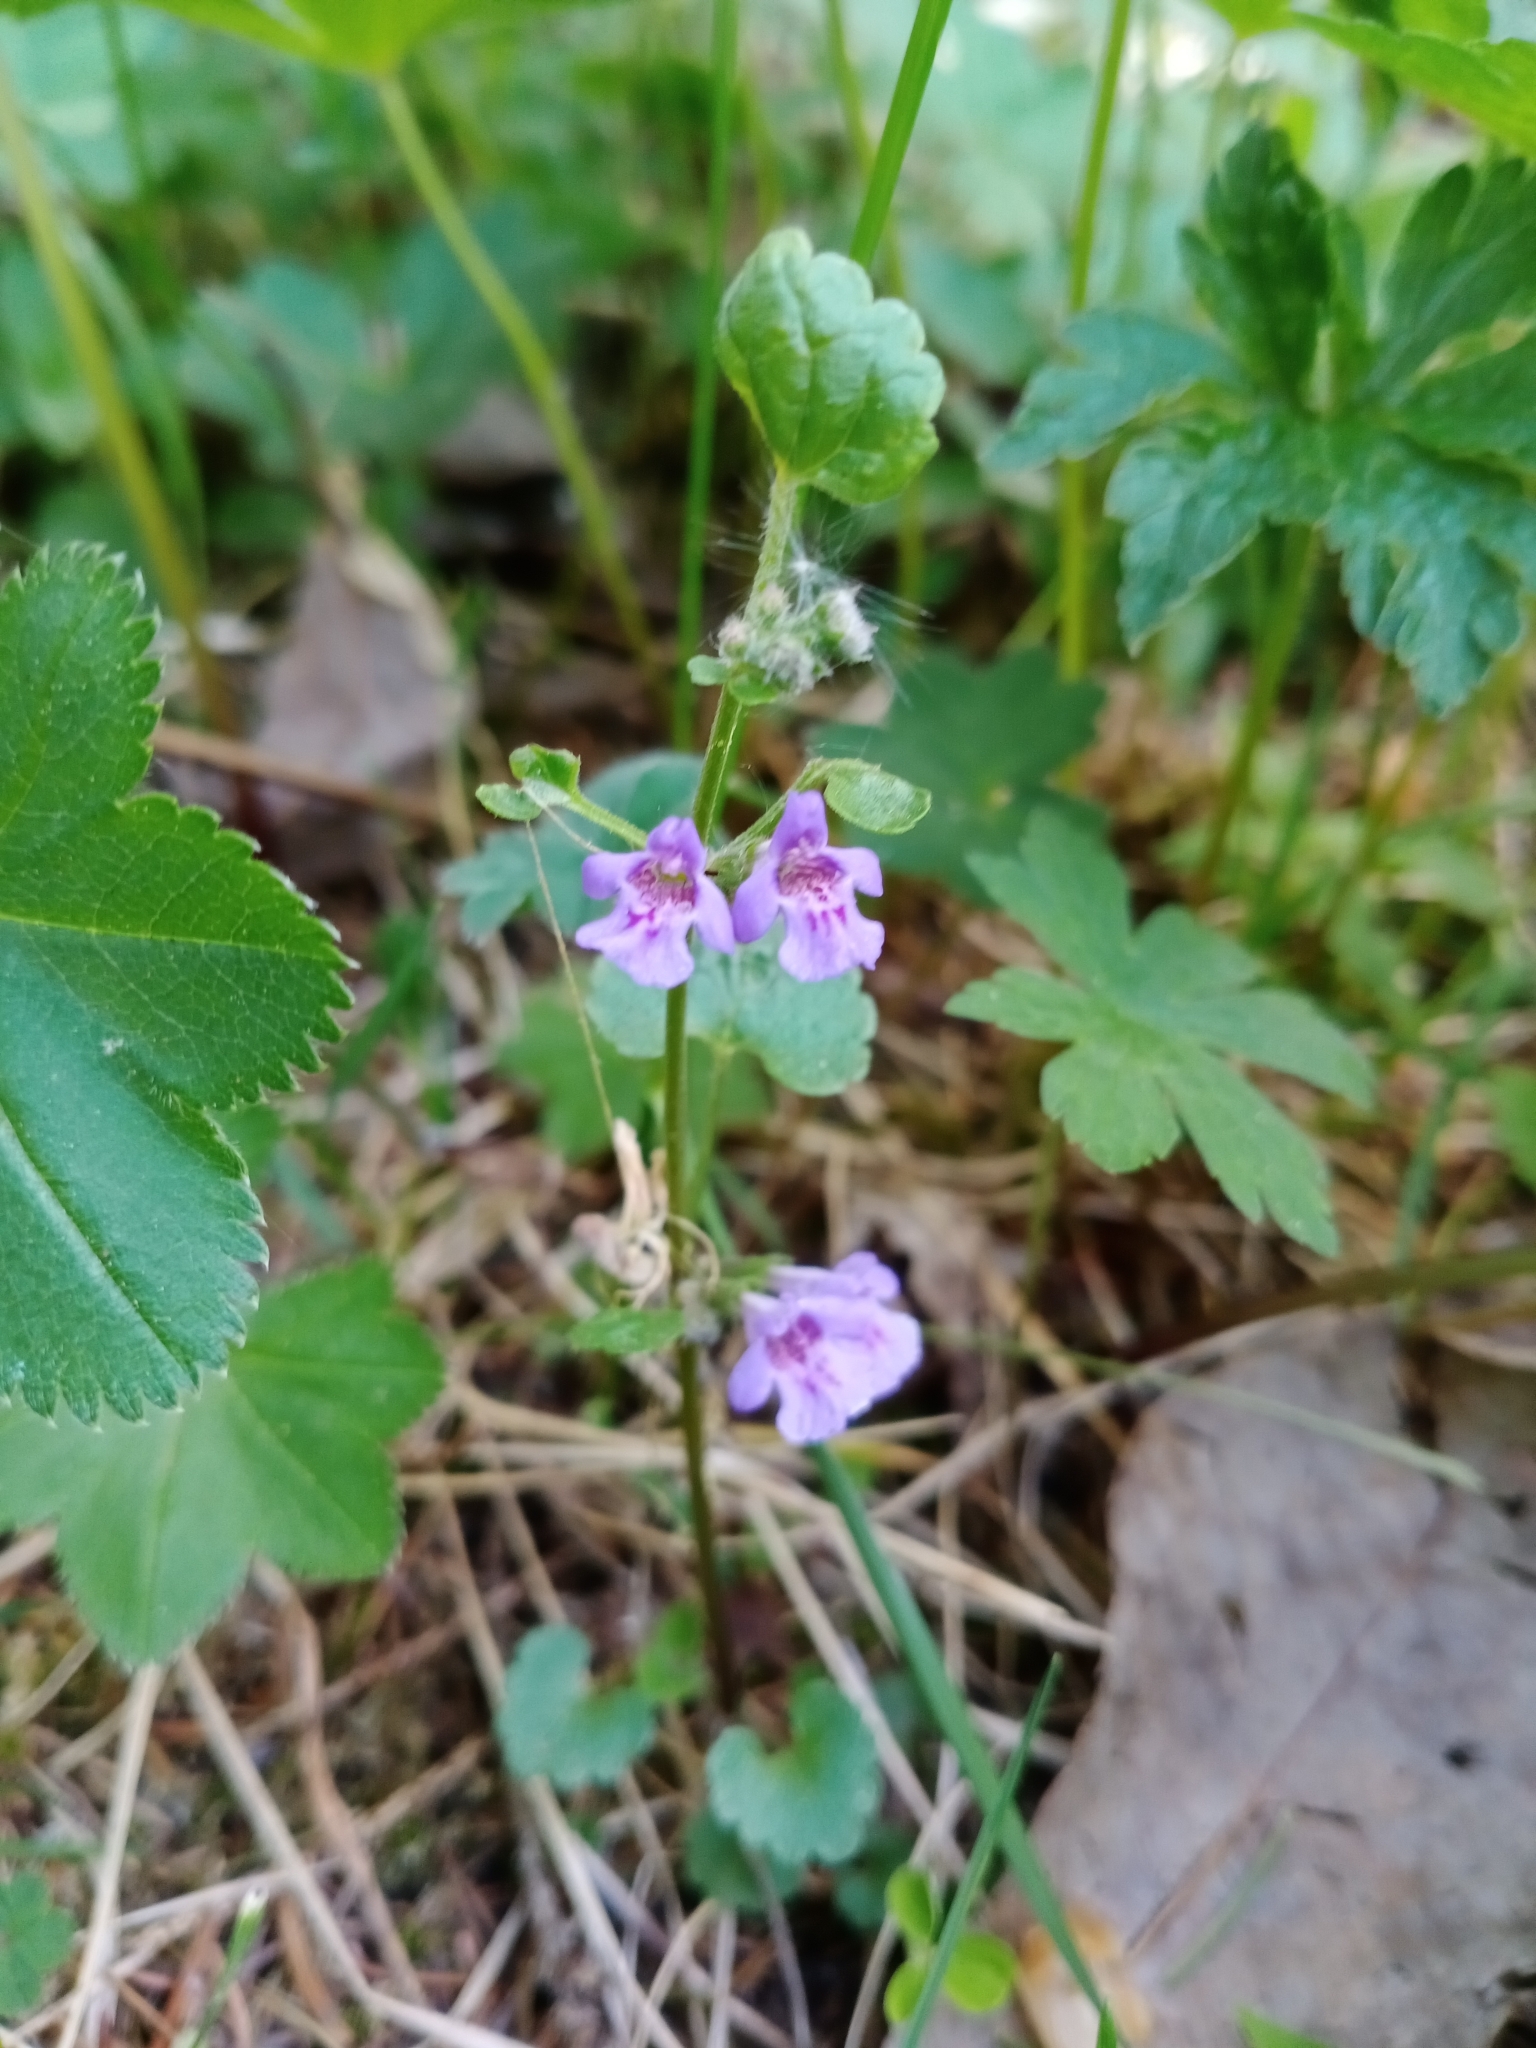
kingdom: Plantae
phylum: Tracheophyta
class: Magnoliopsida
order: Lamiales
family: Lamiaceae
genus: Glechoma
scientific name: Glechoma hederacea
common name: Ground ivy
